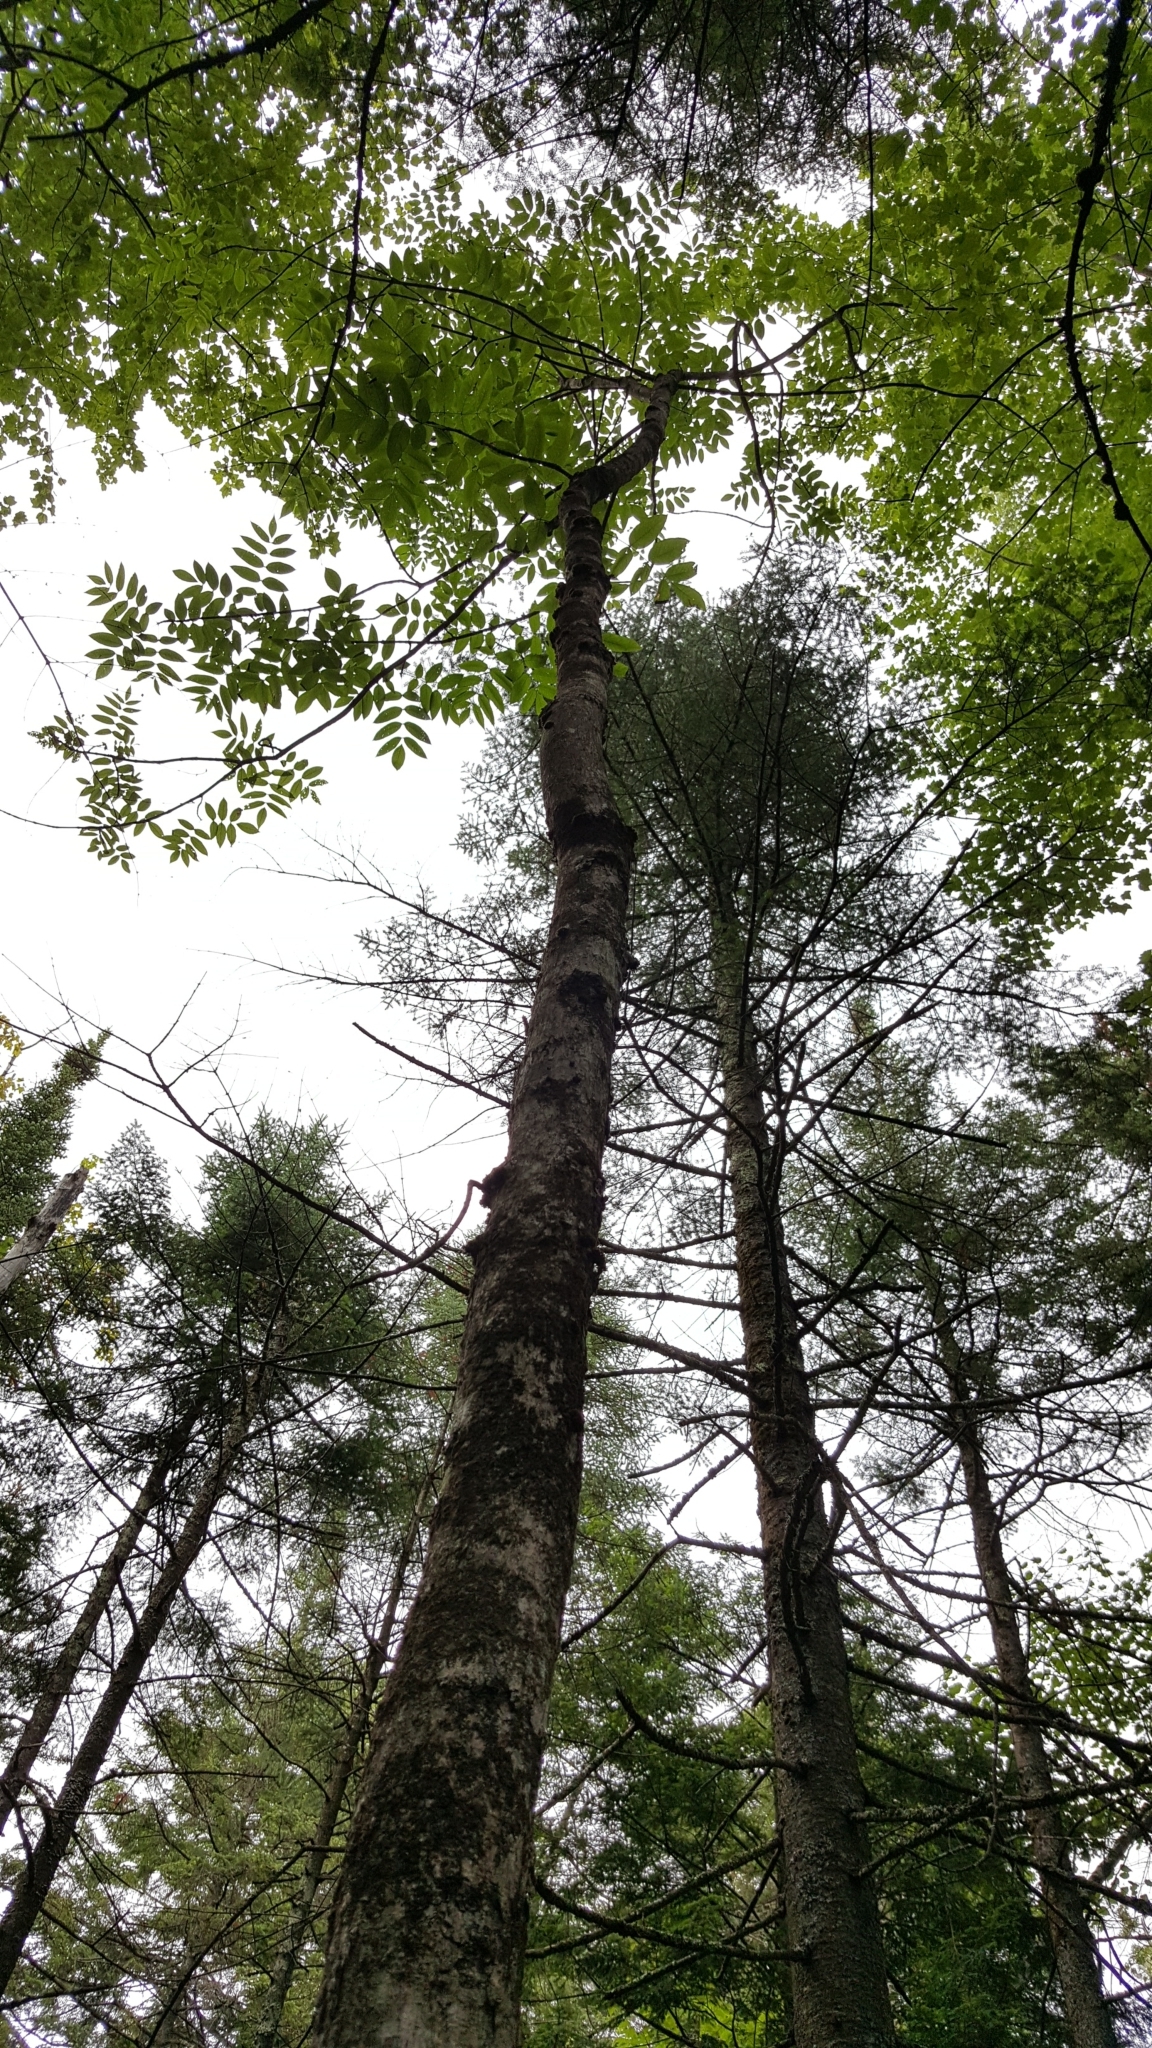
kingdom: Plantae
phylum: Tracheophyta
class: Magnoliopsida
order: Lamiales
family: Oleaceae
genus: Fraxinus
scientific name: Fraxinus nigra
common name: Black ash
